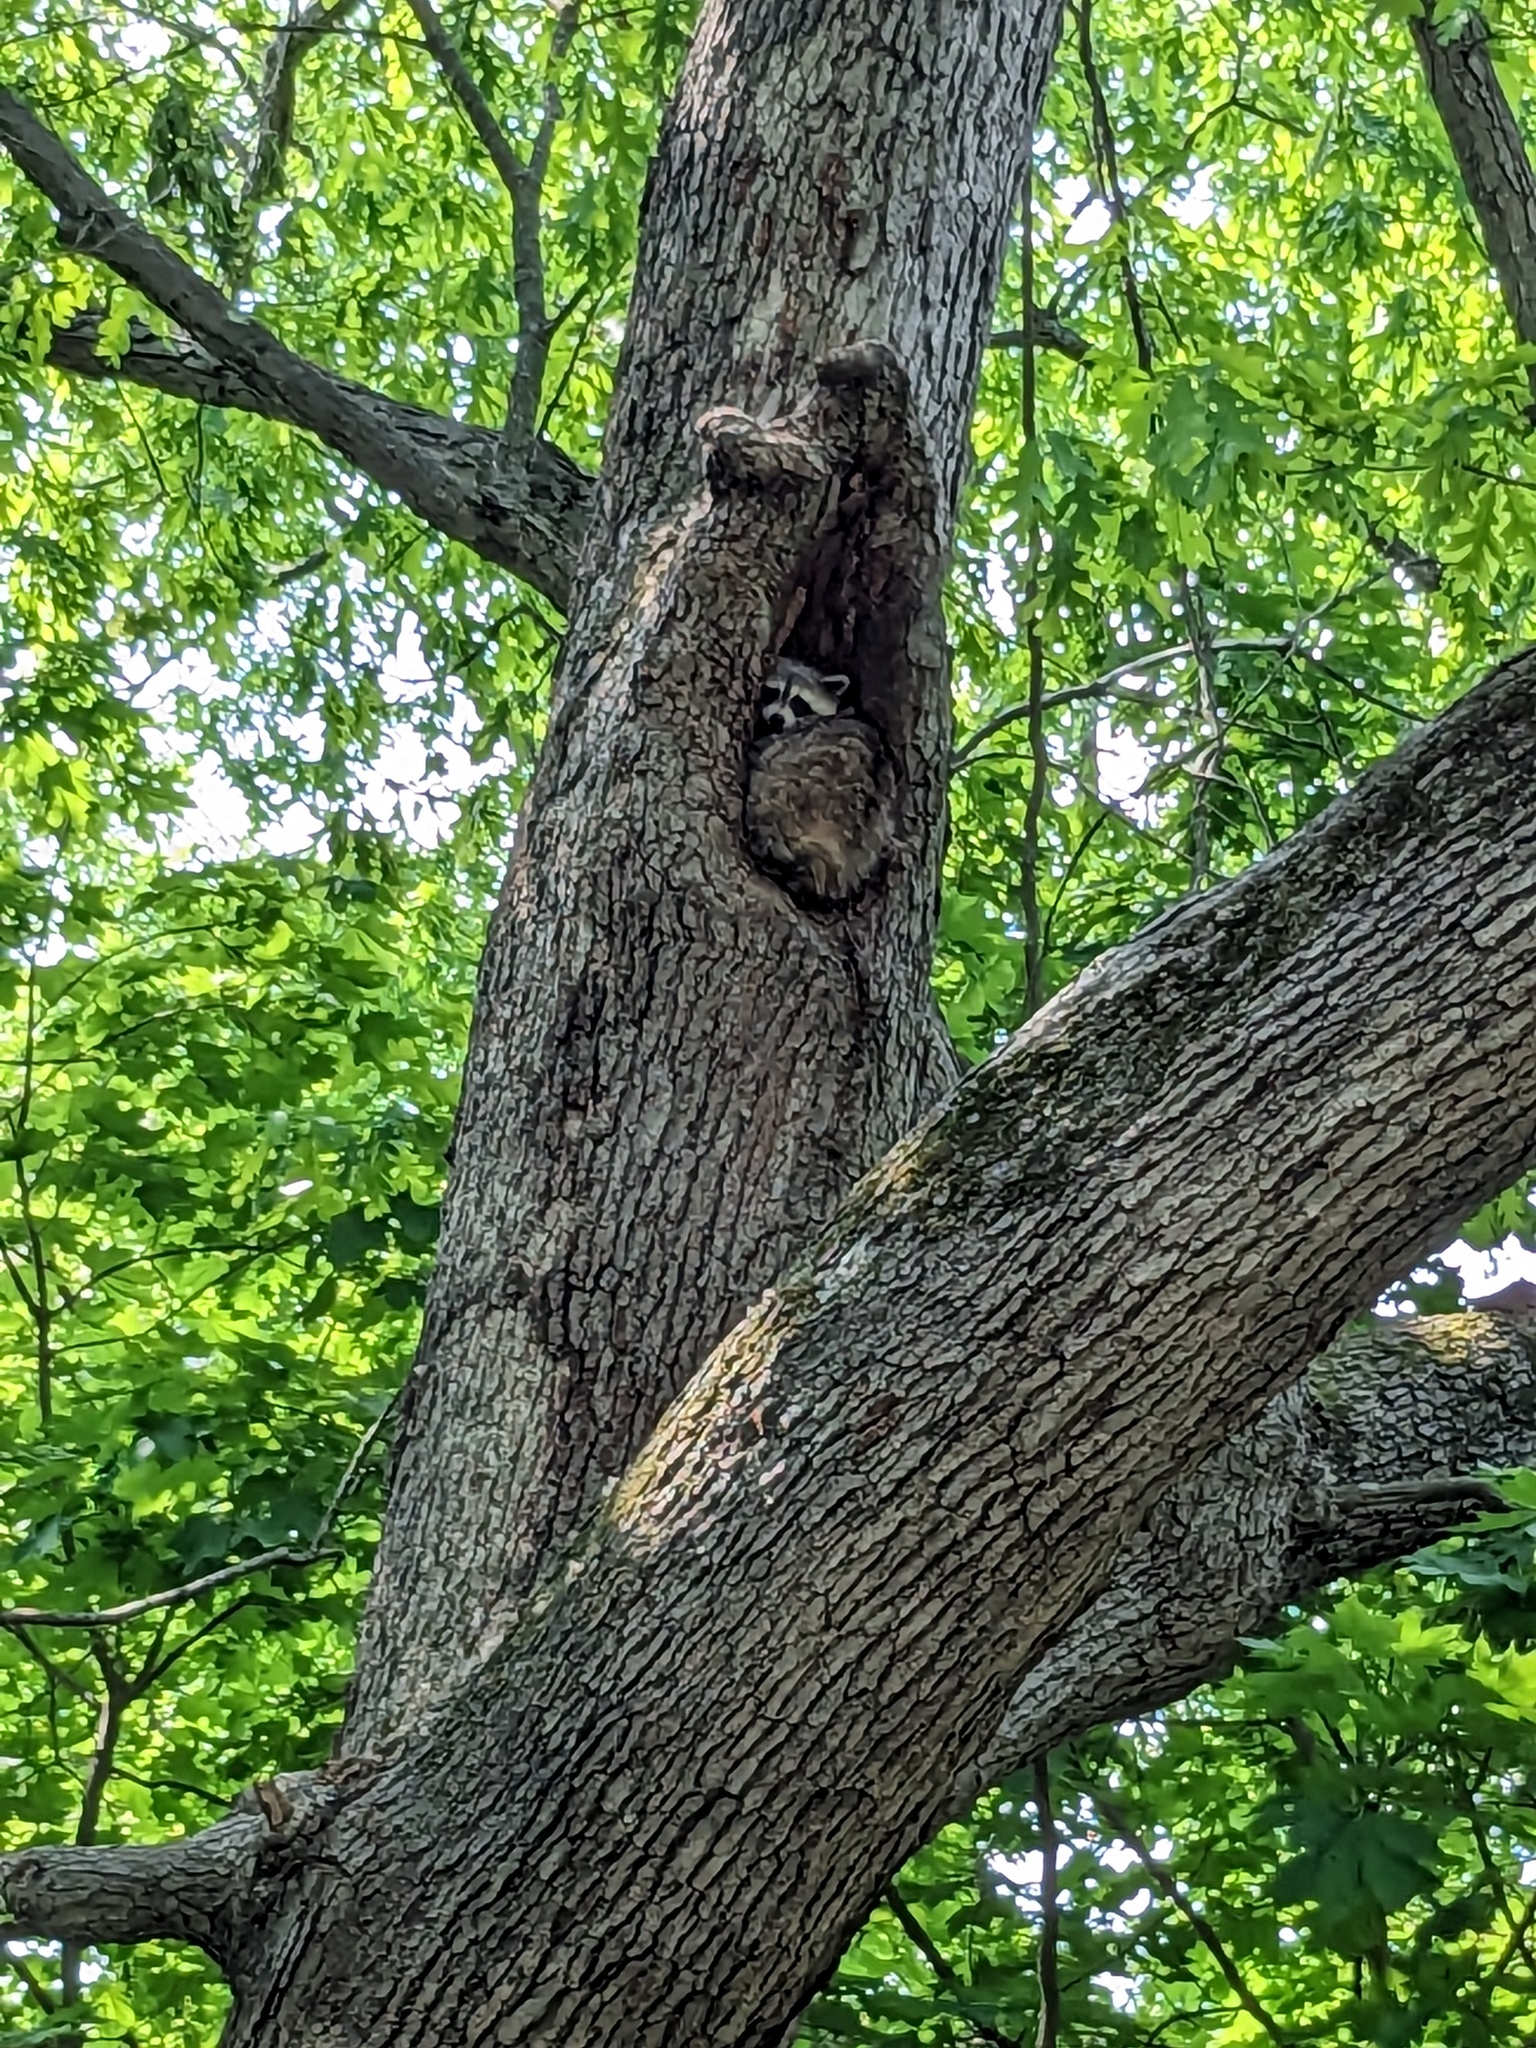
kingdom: Animalia
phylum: Chordata
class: Mammalia
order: Carnivora
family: Procyonidae
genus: Procyon
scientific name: Procyon lotor
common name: Raccoon
